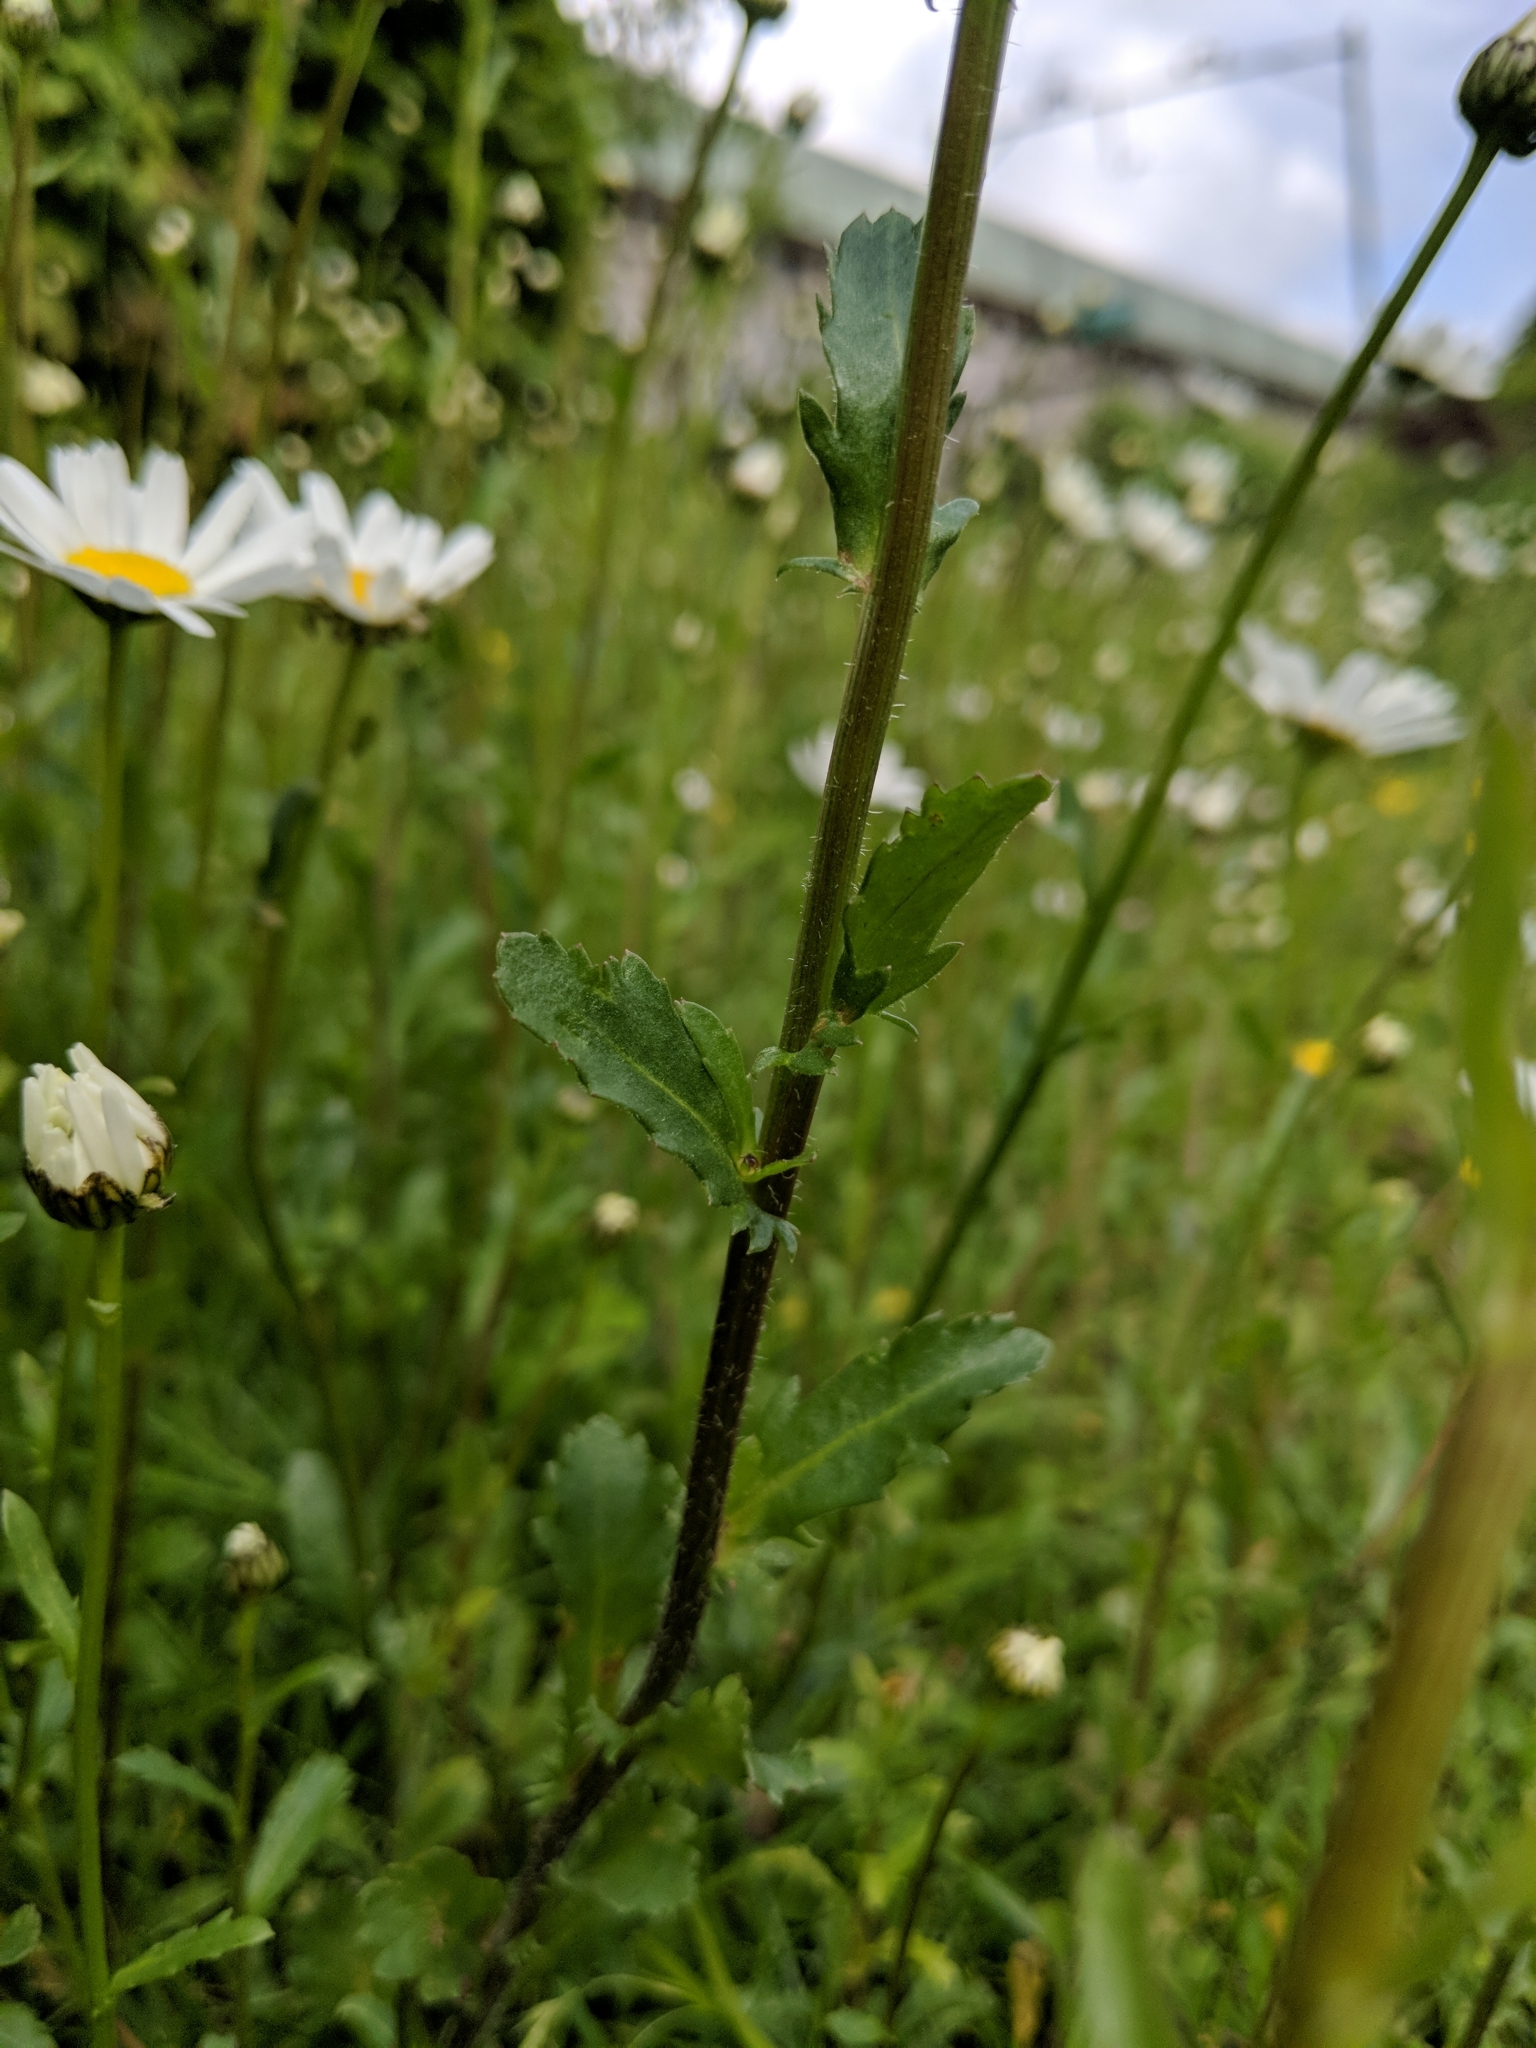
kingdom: Plantae
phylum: Tracheophyta
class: Magnoliopsida
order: Asterales
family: Asteraceae
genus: Leucanthemum
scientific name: Leucanthemum vulgare
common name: Oxeye daisy
